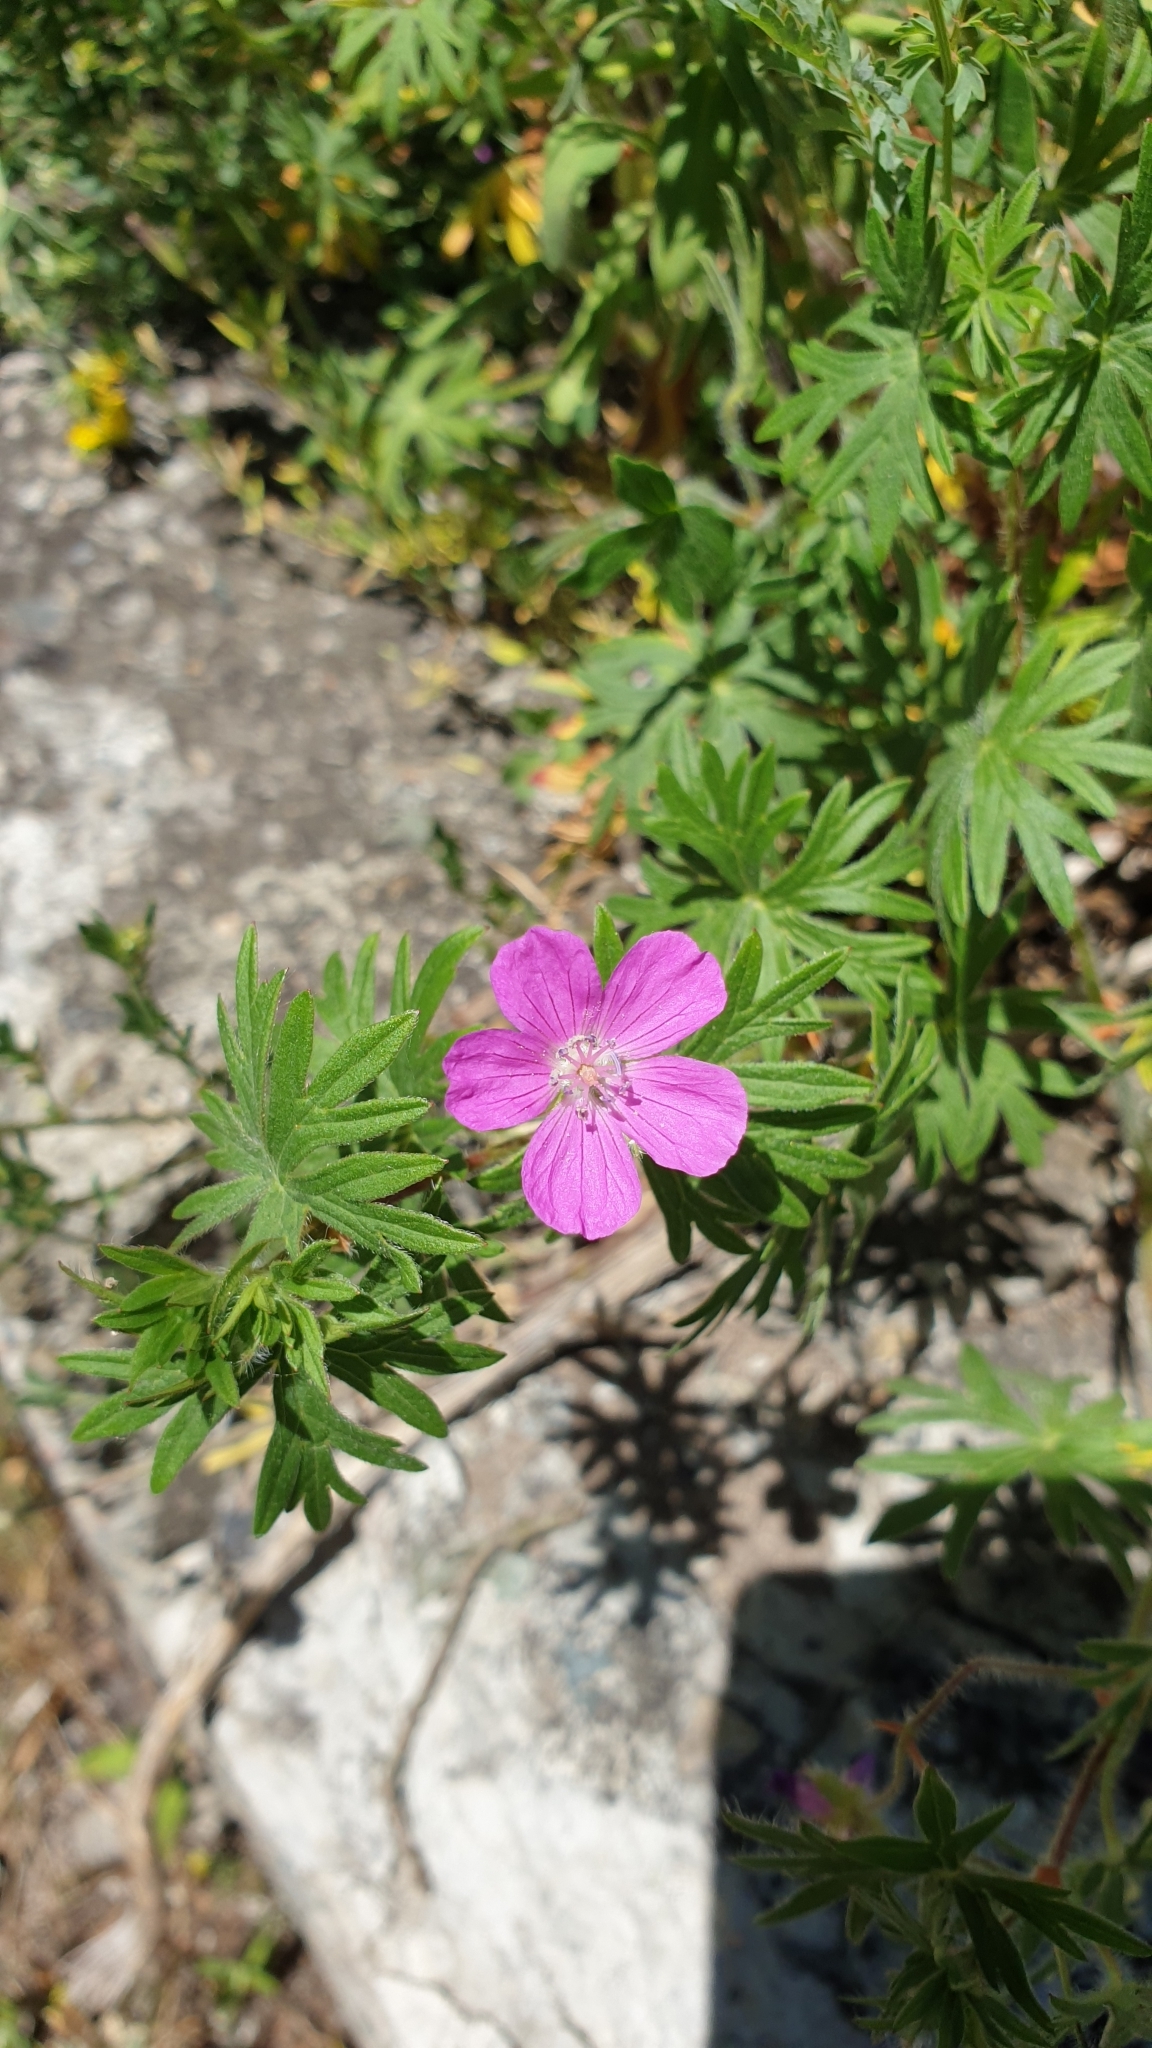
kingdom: Plantae
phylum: Tracheophyta
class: Magnoliopsida
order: Geraniales
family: Geraniaceae
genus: Geranium
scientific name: Geranium sanguineum
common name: Bloody crane's-bill
